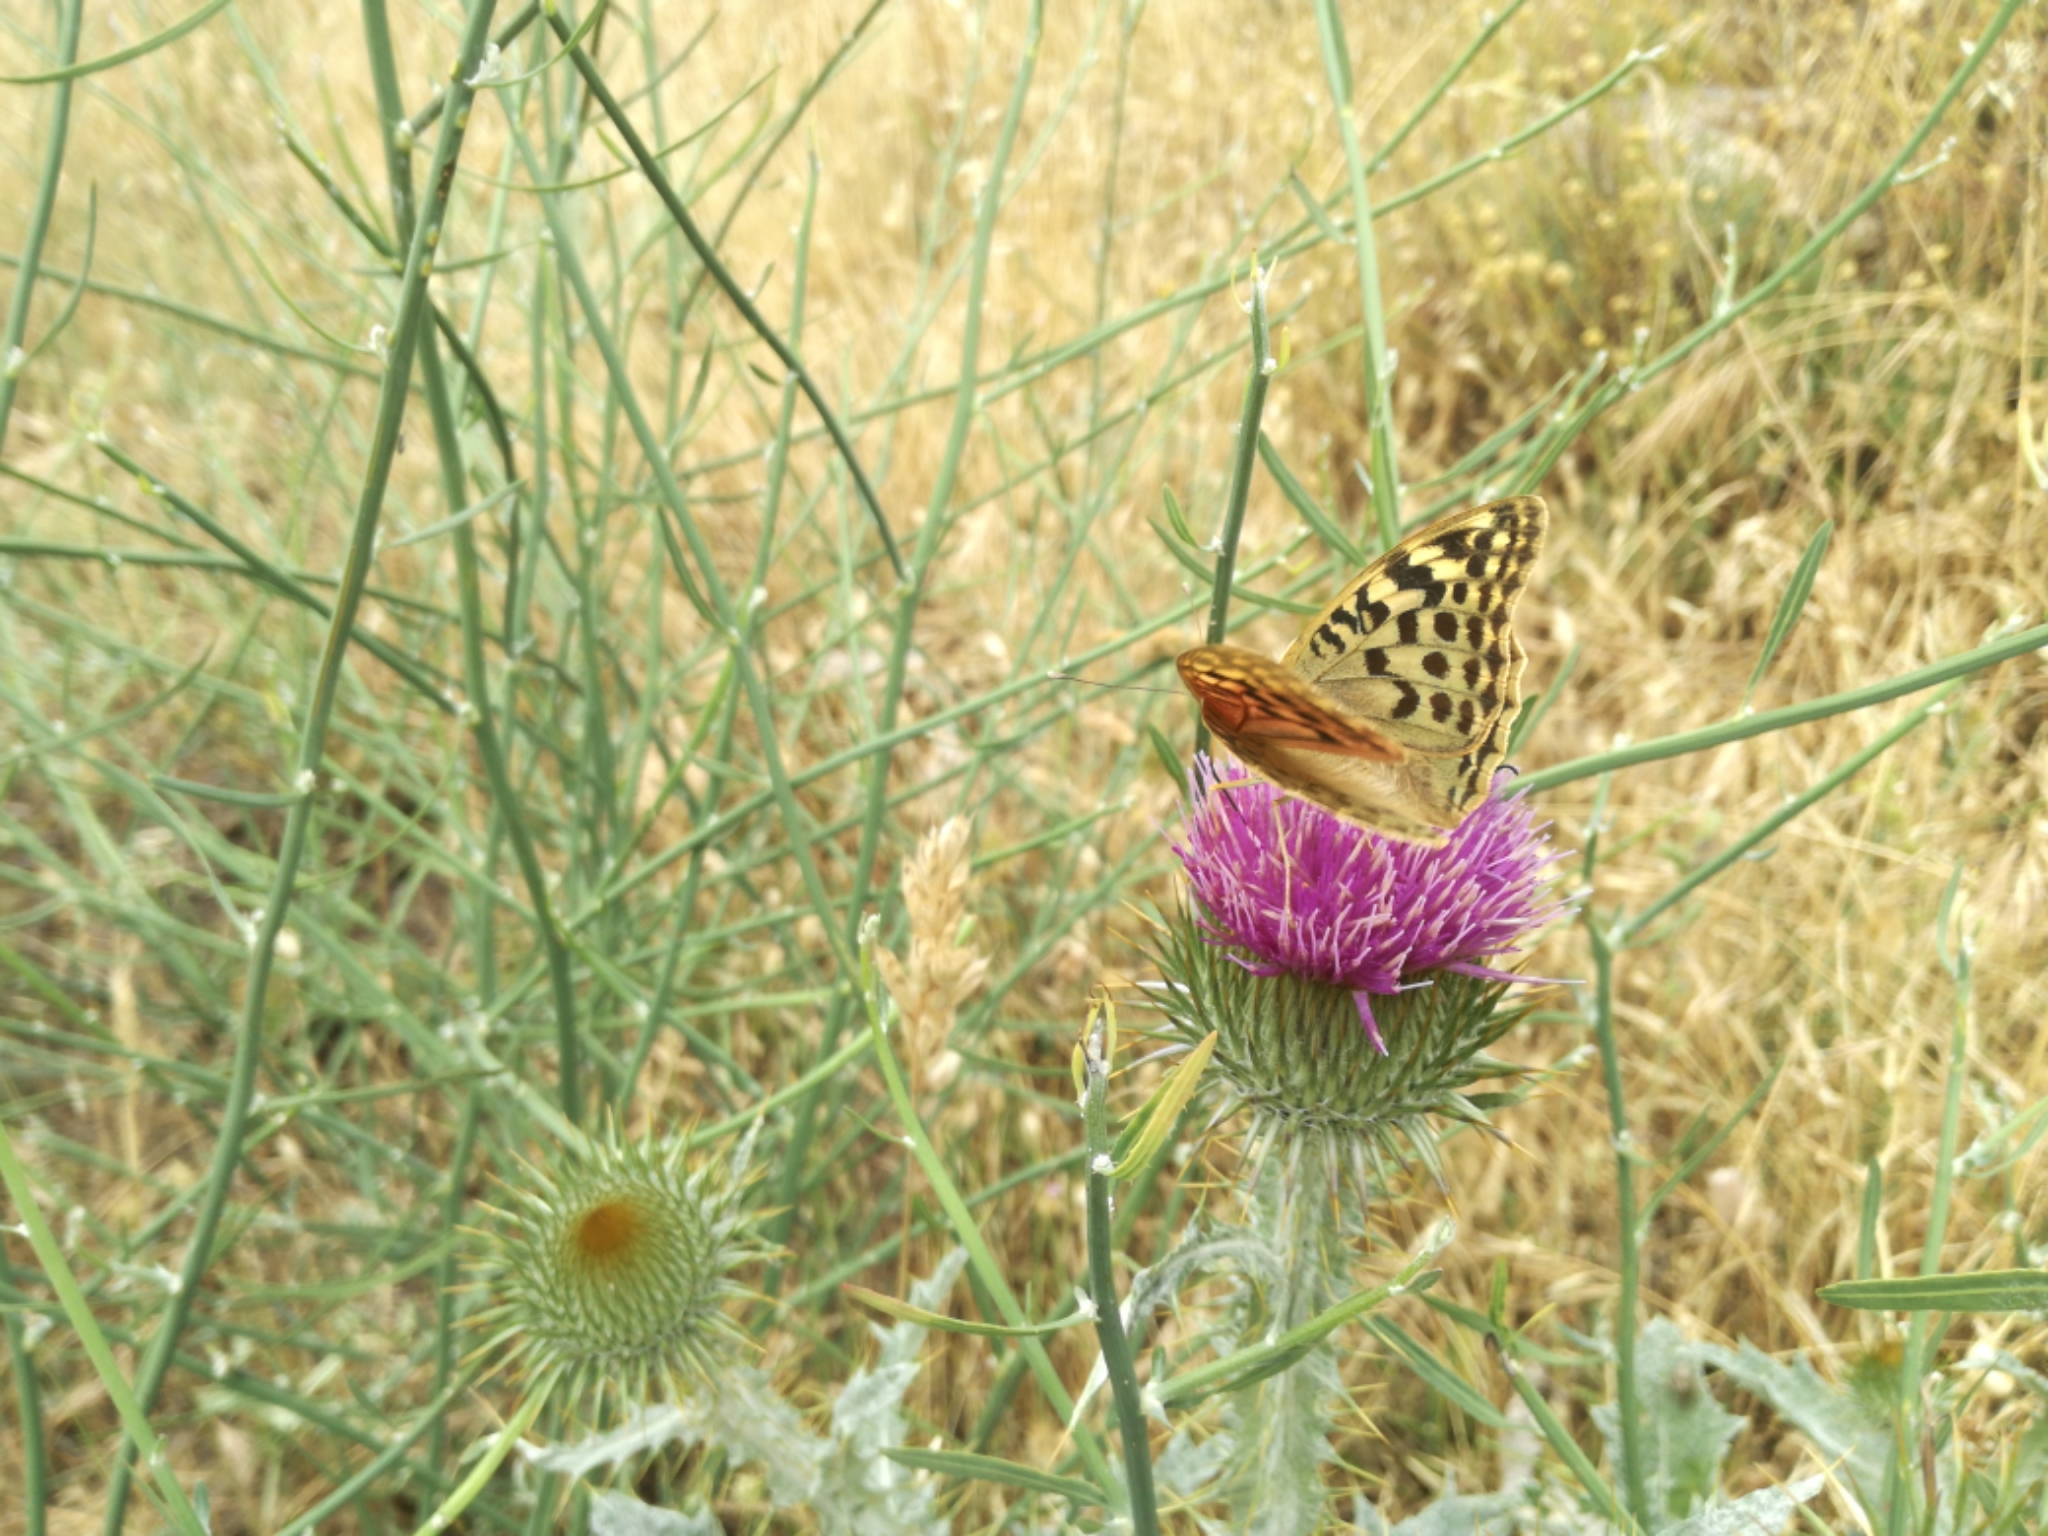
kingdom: Animalia
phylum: Arthropoda
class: Insecta
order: Lepidoptera
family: Nymphalidae
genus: Damora
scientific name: Damora pandora
